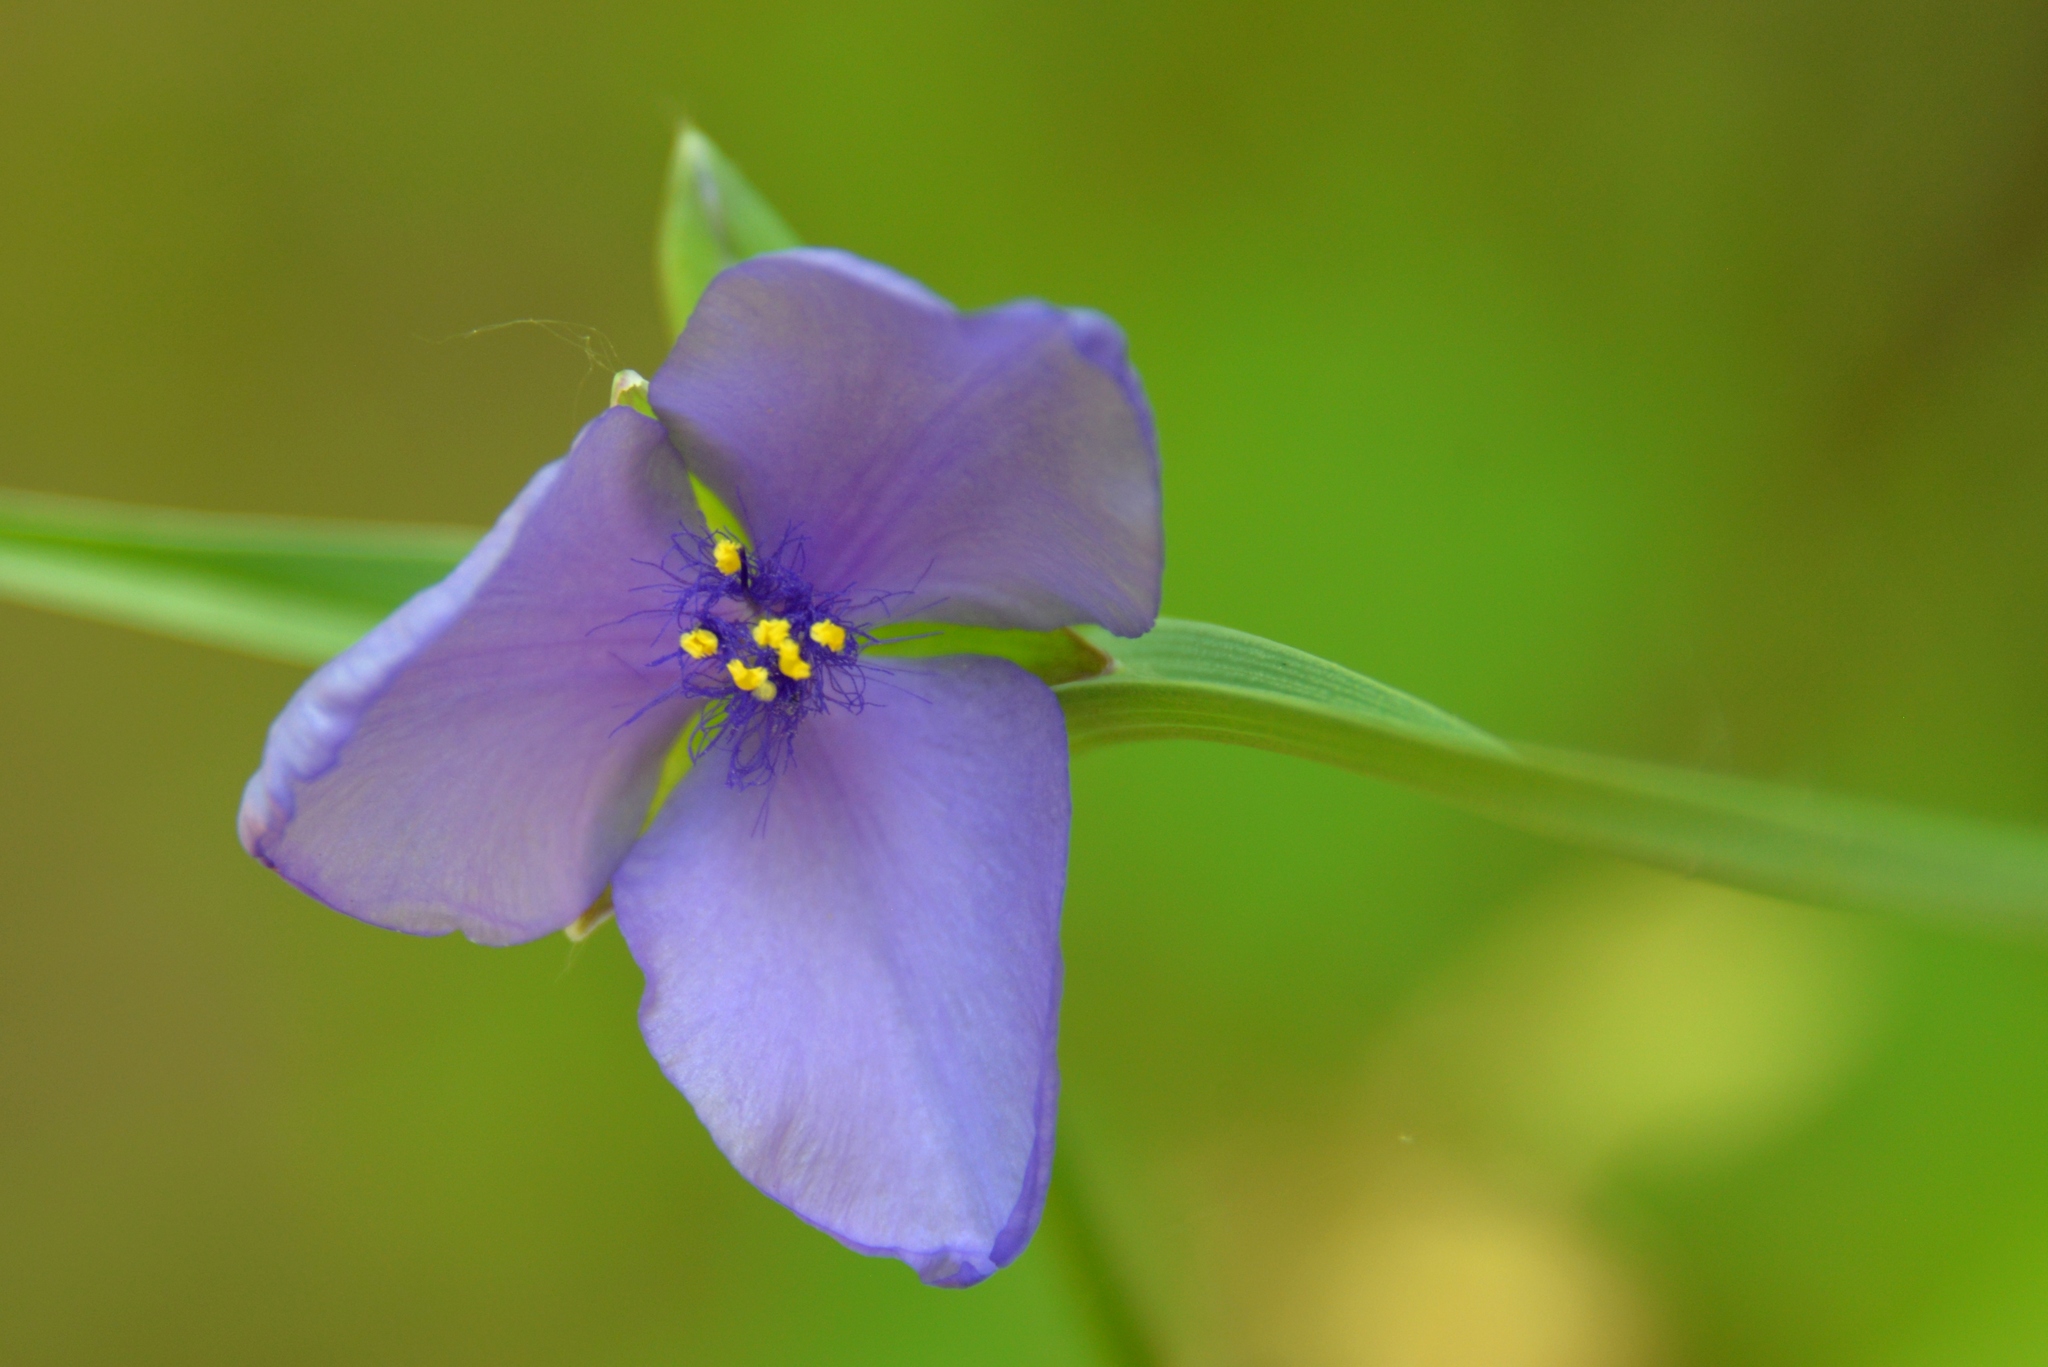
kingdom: Plantae
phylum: Tracheophyta
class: Liliopsida
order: Commelinales
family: Commelinaceae
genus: Tradescantia
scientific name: Tradescantia ohiensis
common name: Ohio spiderwort
